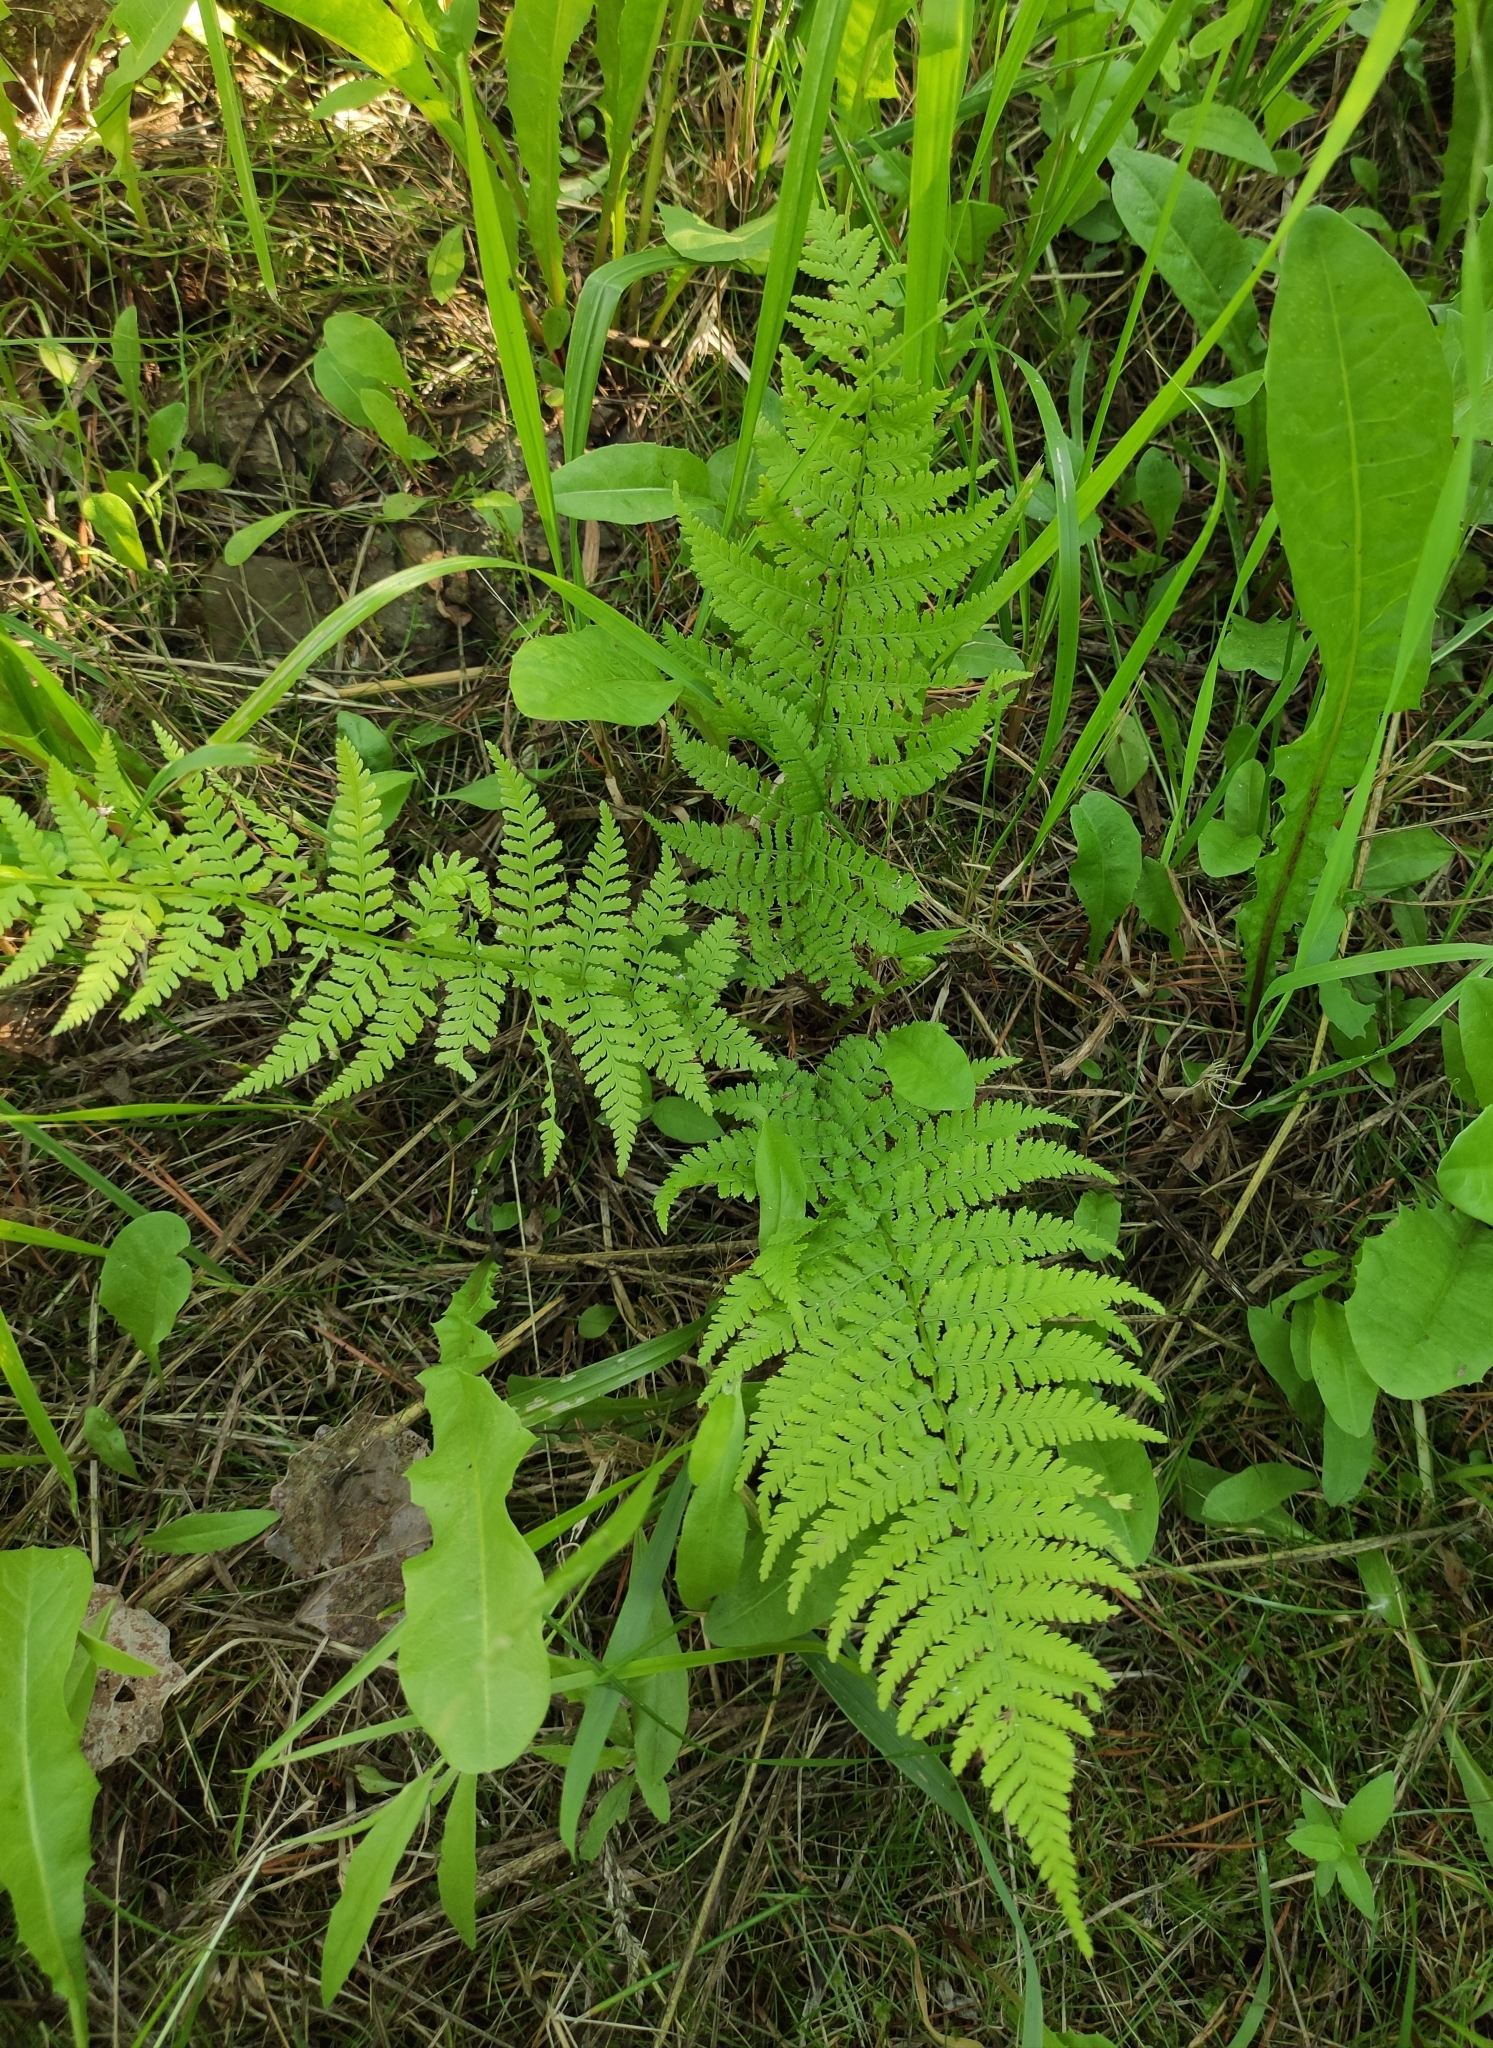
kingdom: Plantae
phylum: Tracheophyta
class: Polypodiopsida
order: Polypodiales
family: Athyriaceae
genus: Athyrium
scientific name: Athyrium filix-femina
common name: Lady fern
